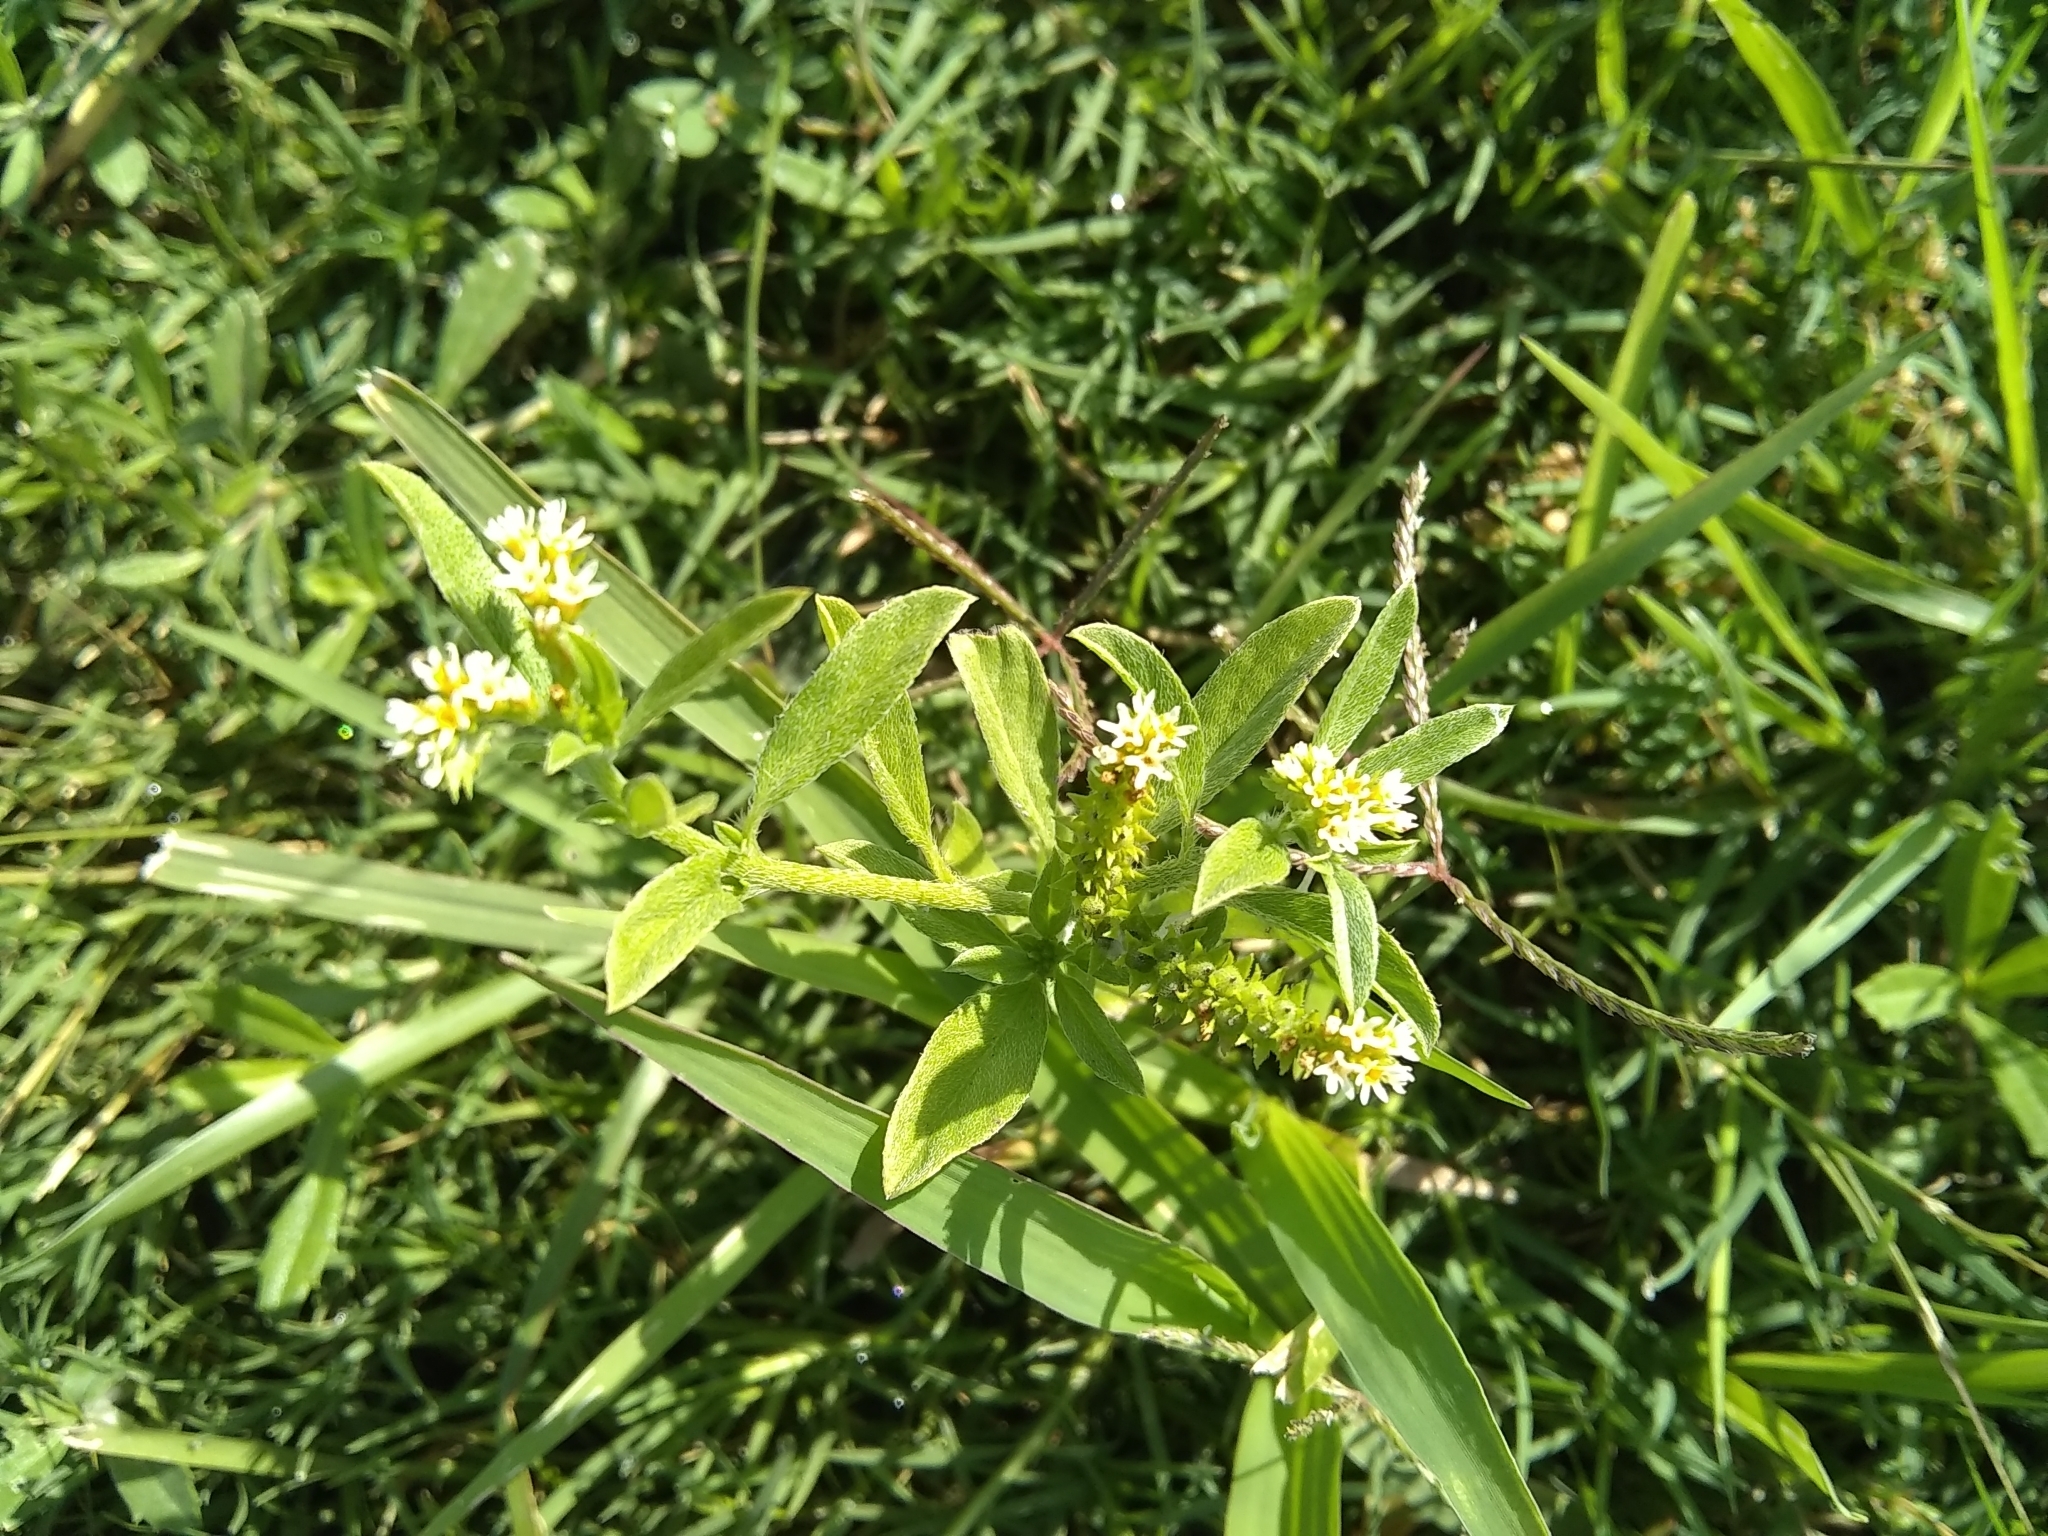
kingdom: Plantae
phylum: Tracheophyta
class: Magnoliopsida
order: Boraginales
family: Heliotropiaceae
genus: Euploca
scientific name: Euploca procumbens
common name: Fourspike heliotrope
